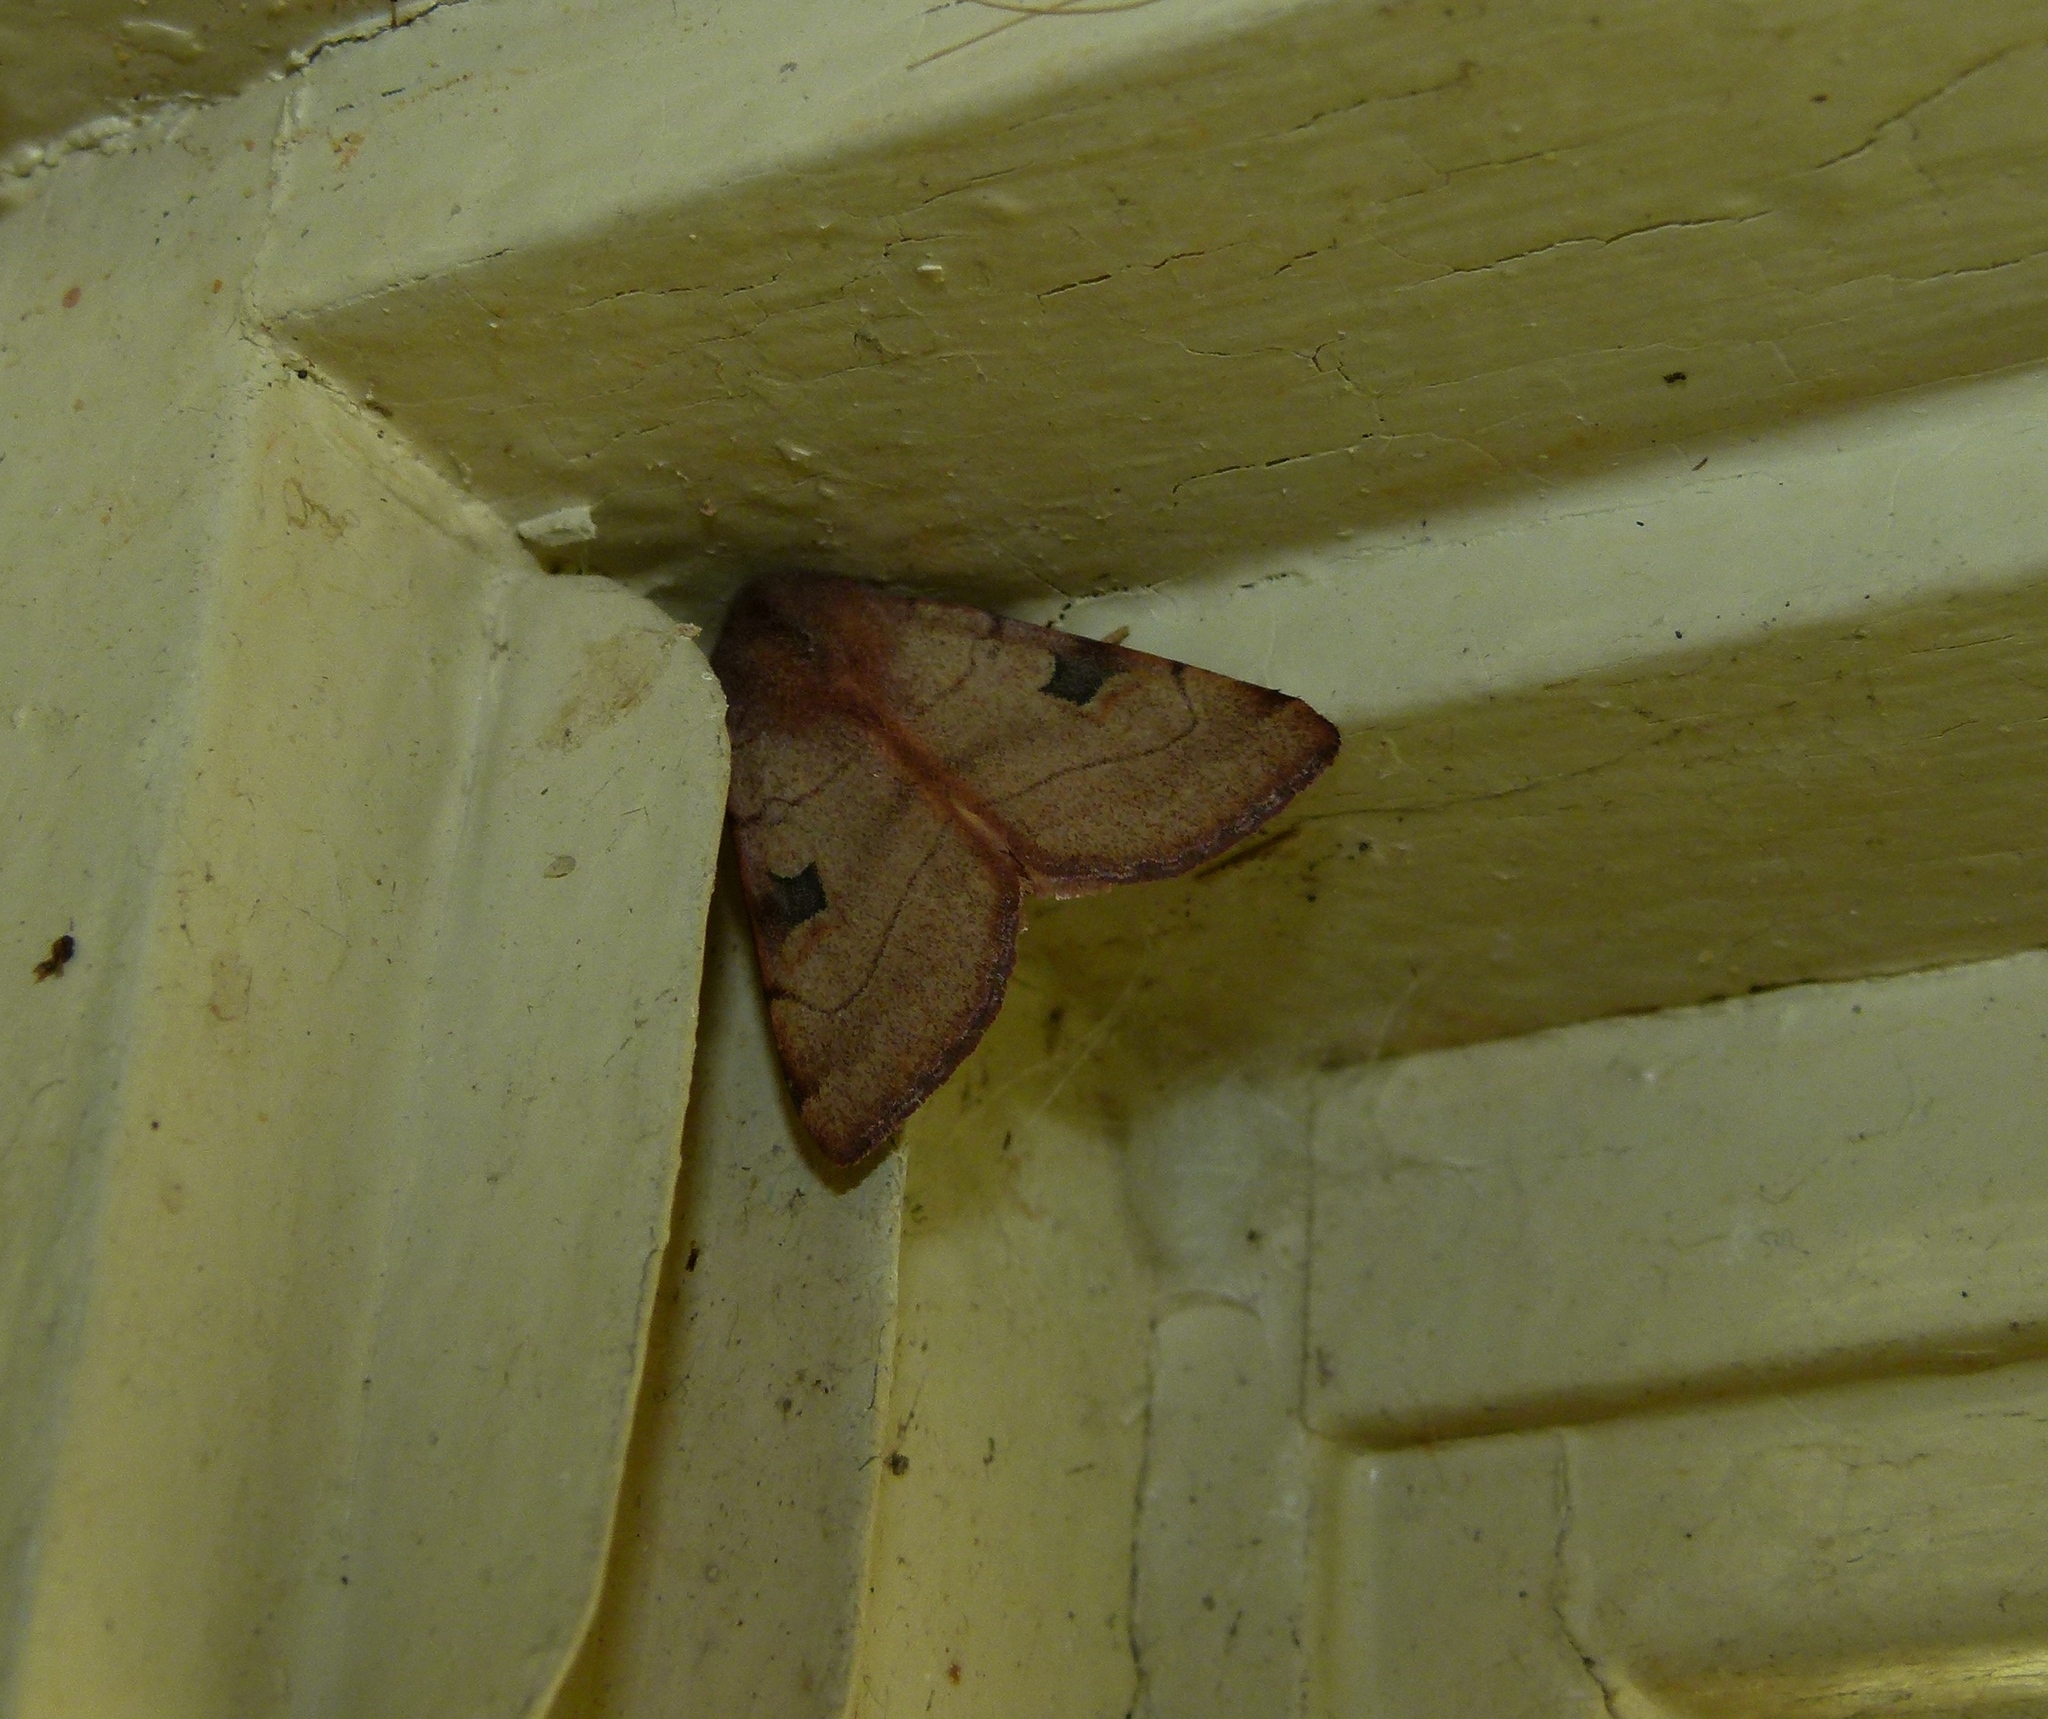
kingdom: Animalia
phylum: Arthropoda
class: Insecta
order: Lepidoptera
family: Noctuidae
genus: Choephora
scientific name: Choephora fungorum
